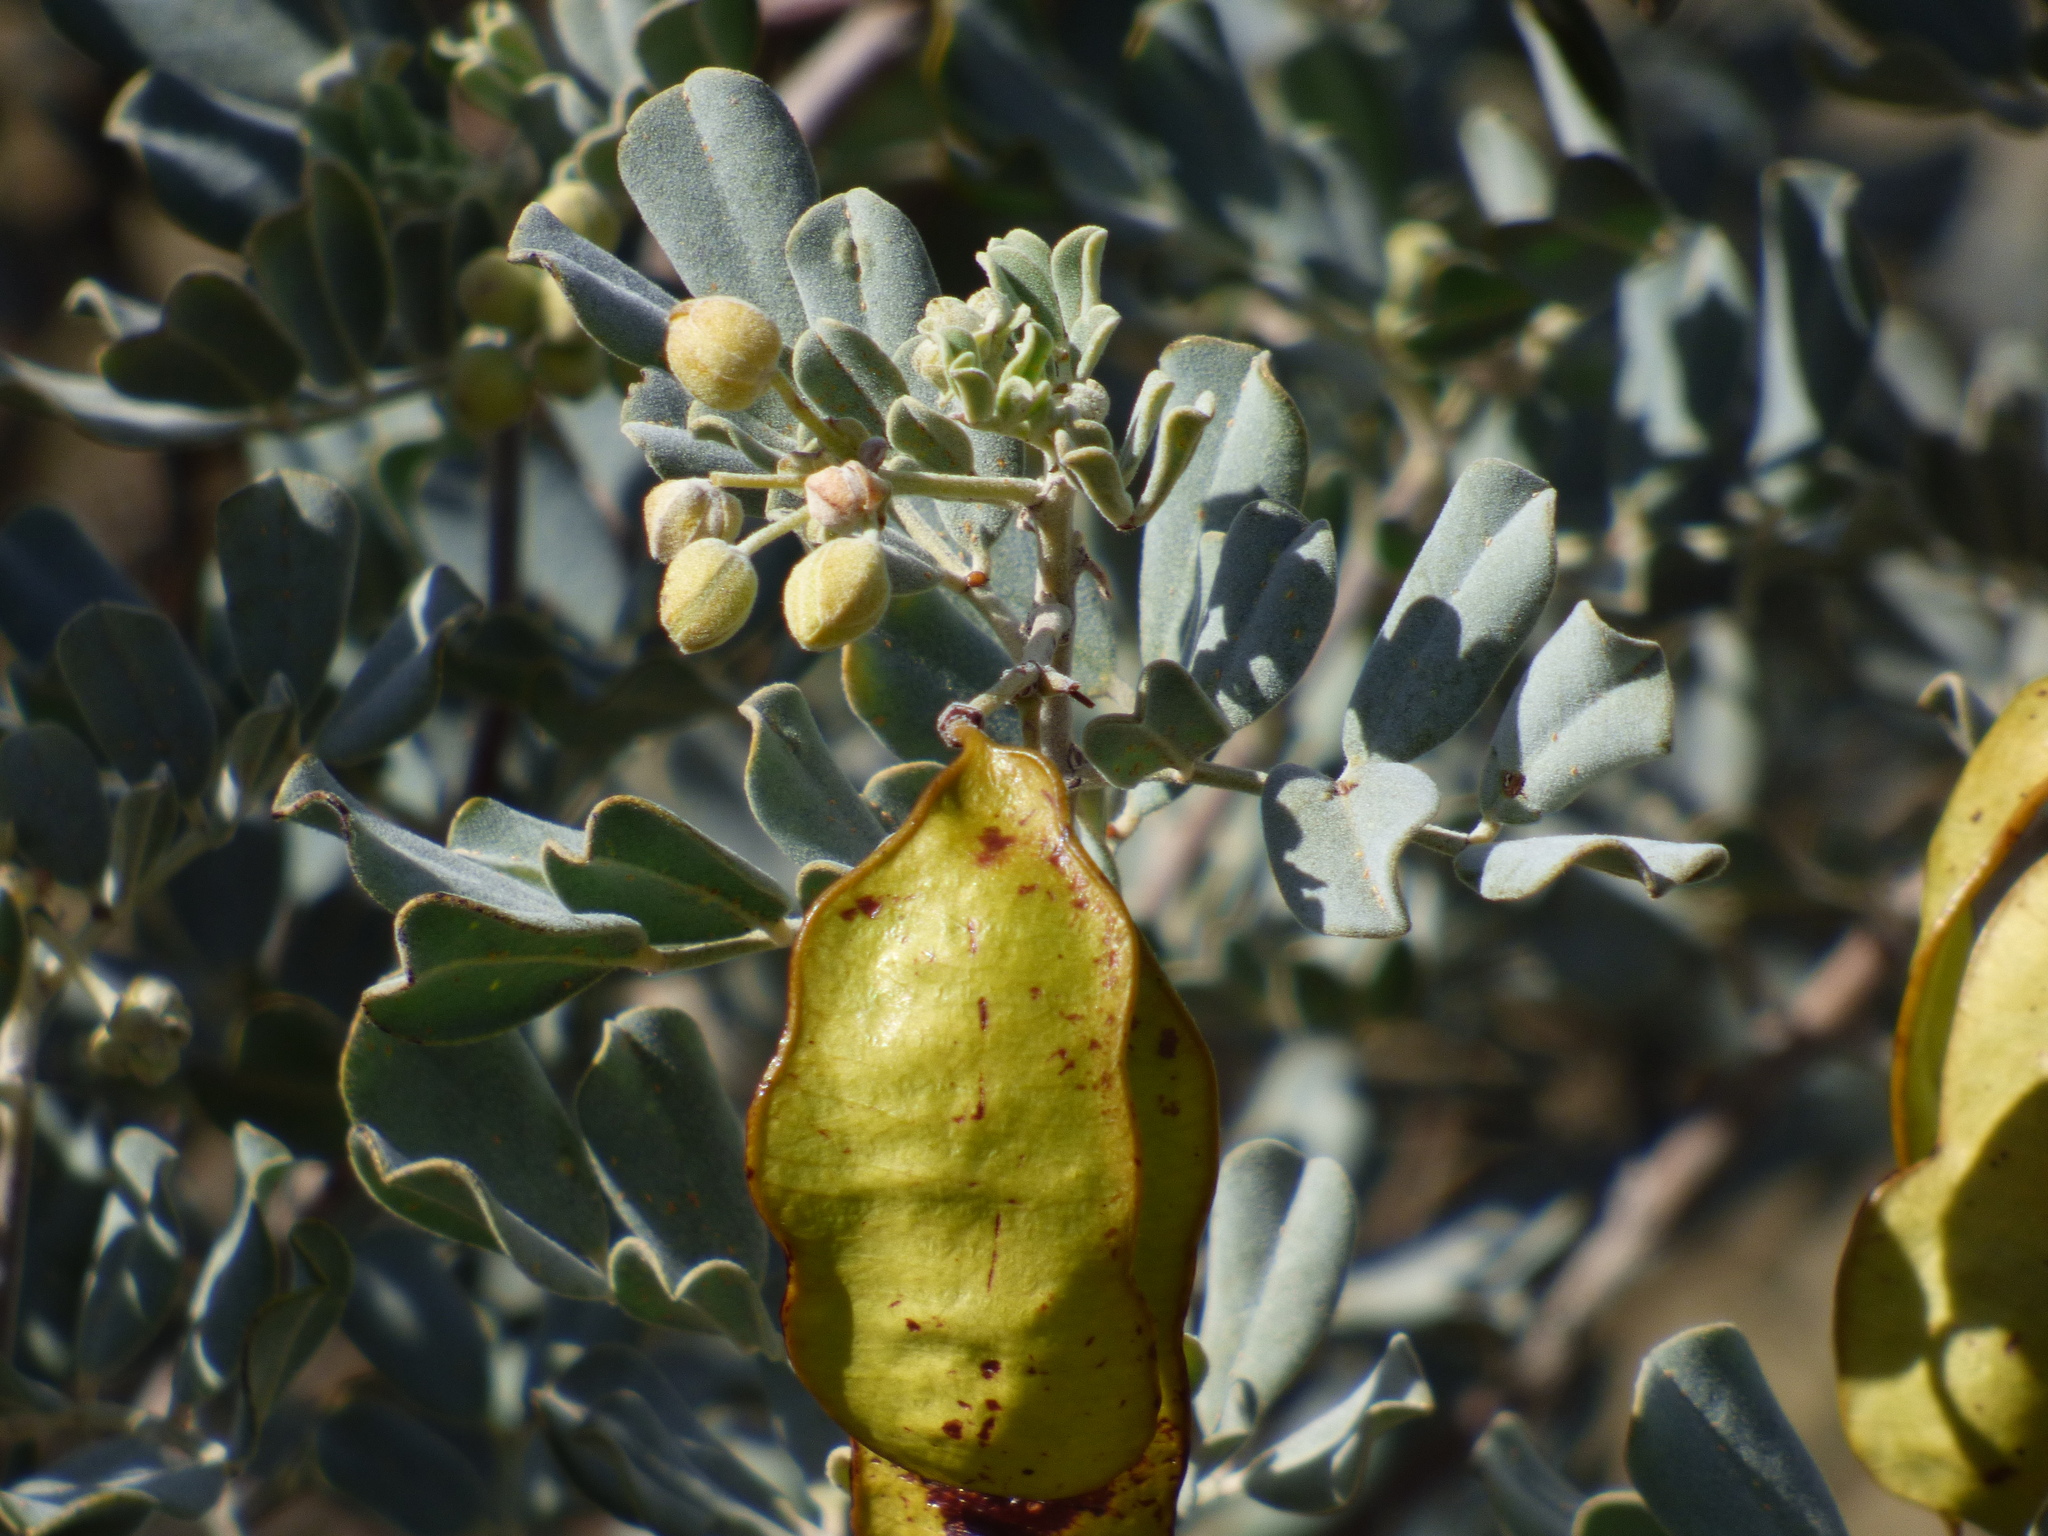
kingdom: Plantae
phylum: Tracheophyta
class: Magnoliopsida
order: Fabales
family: Fabaceae
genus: Senna
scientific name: Senna artemisioides
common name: Burnt-leaved acacia
